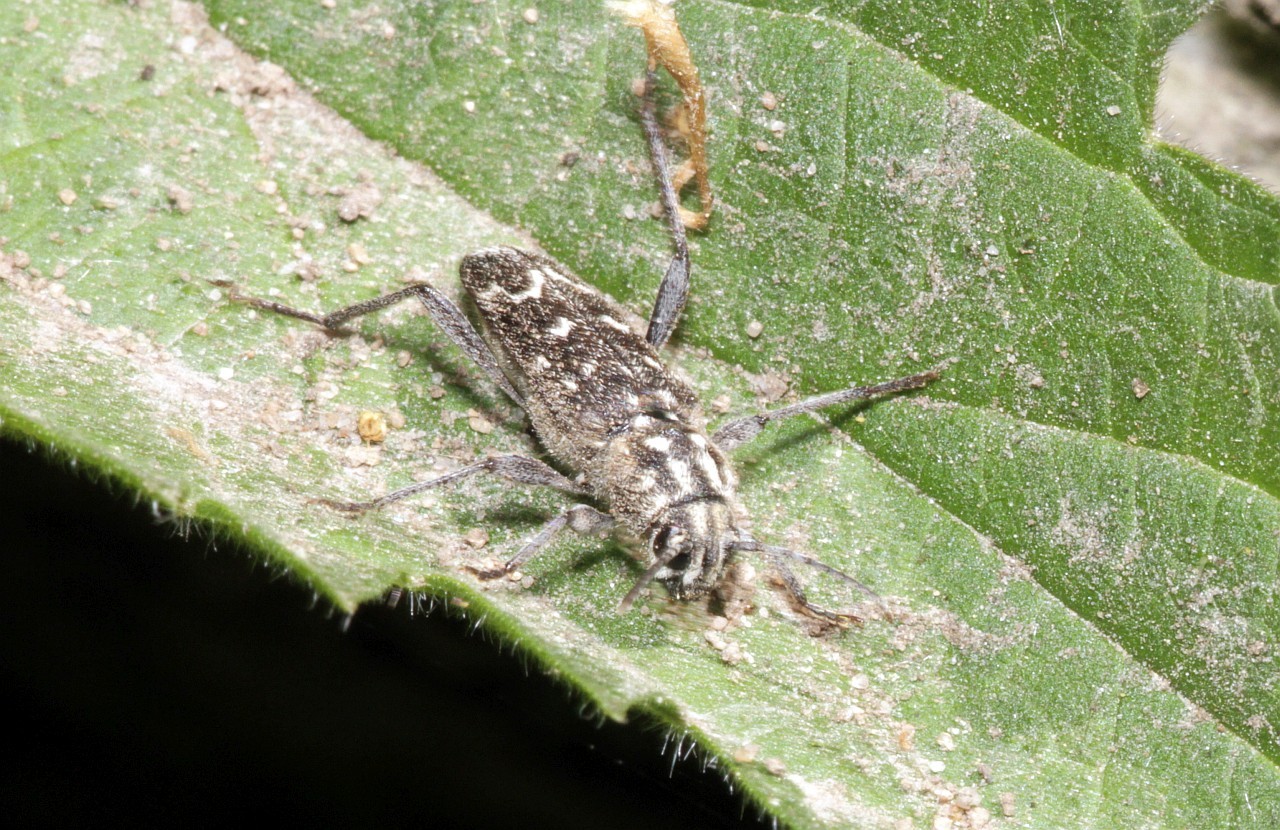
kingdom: Animalia
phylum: Arthropoda
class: Insecta
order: Coleoptera
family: Cerambycidae
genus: Xylotrechus
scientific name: Xylotrechus rusticus
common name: Grey tiger long-horned beetle
